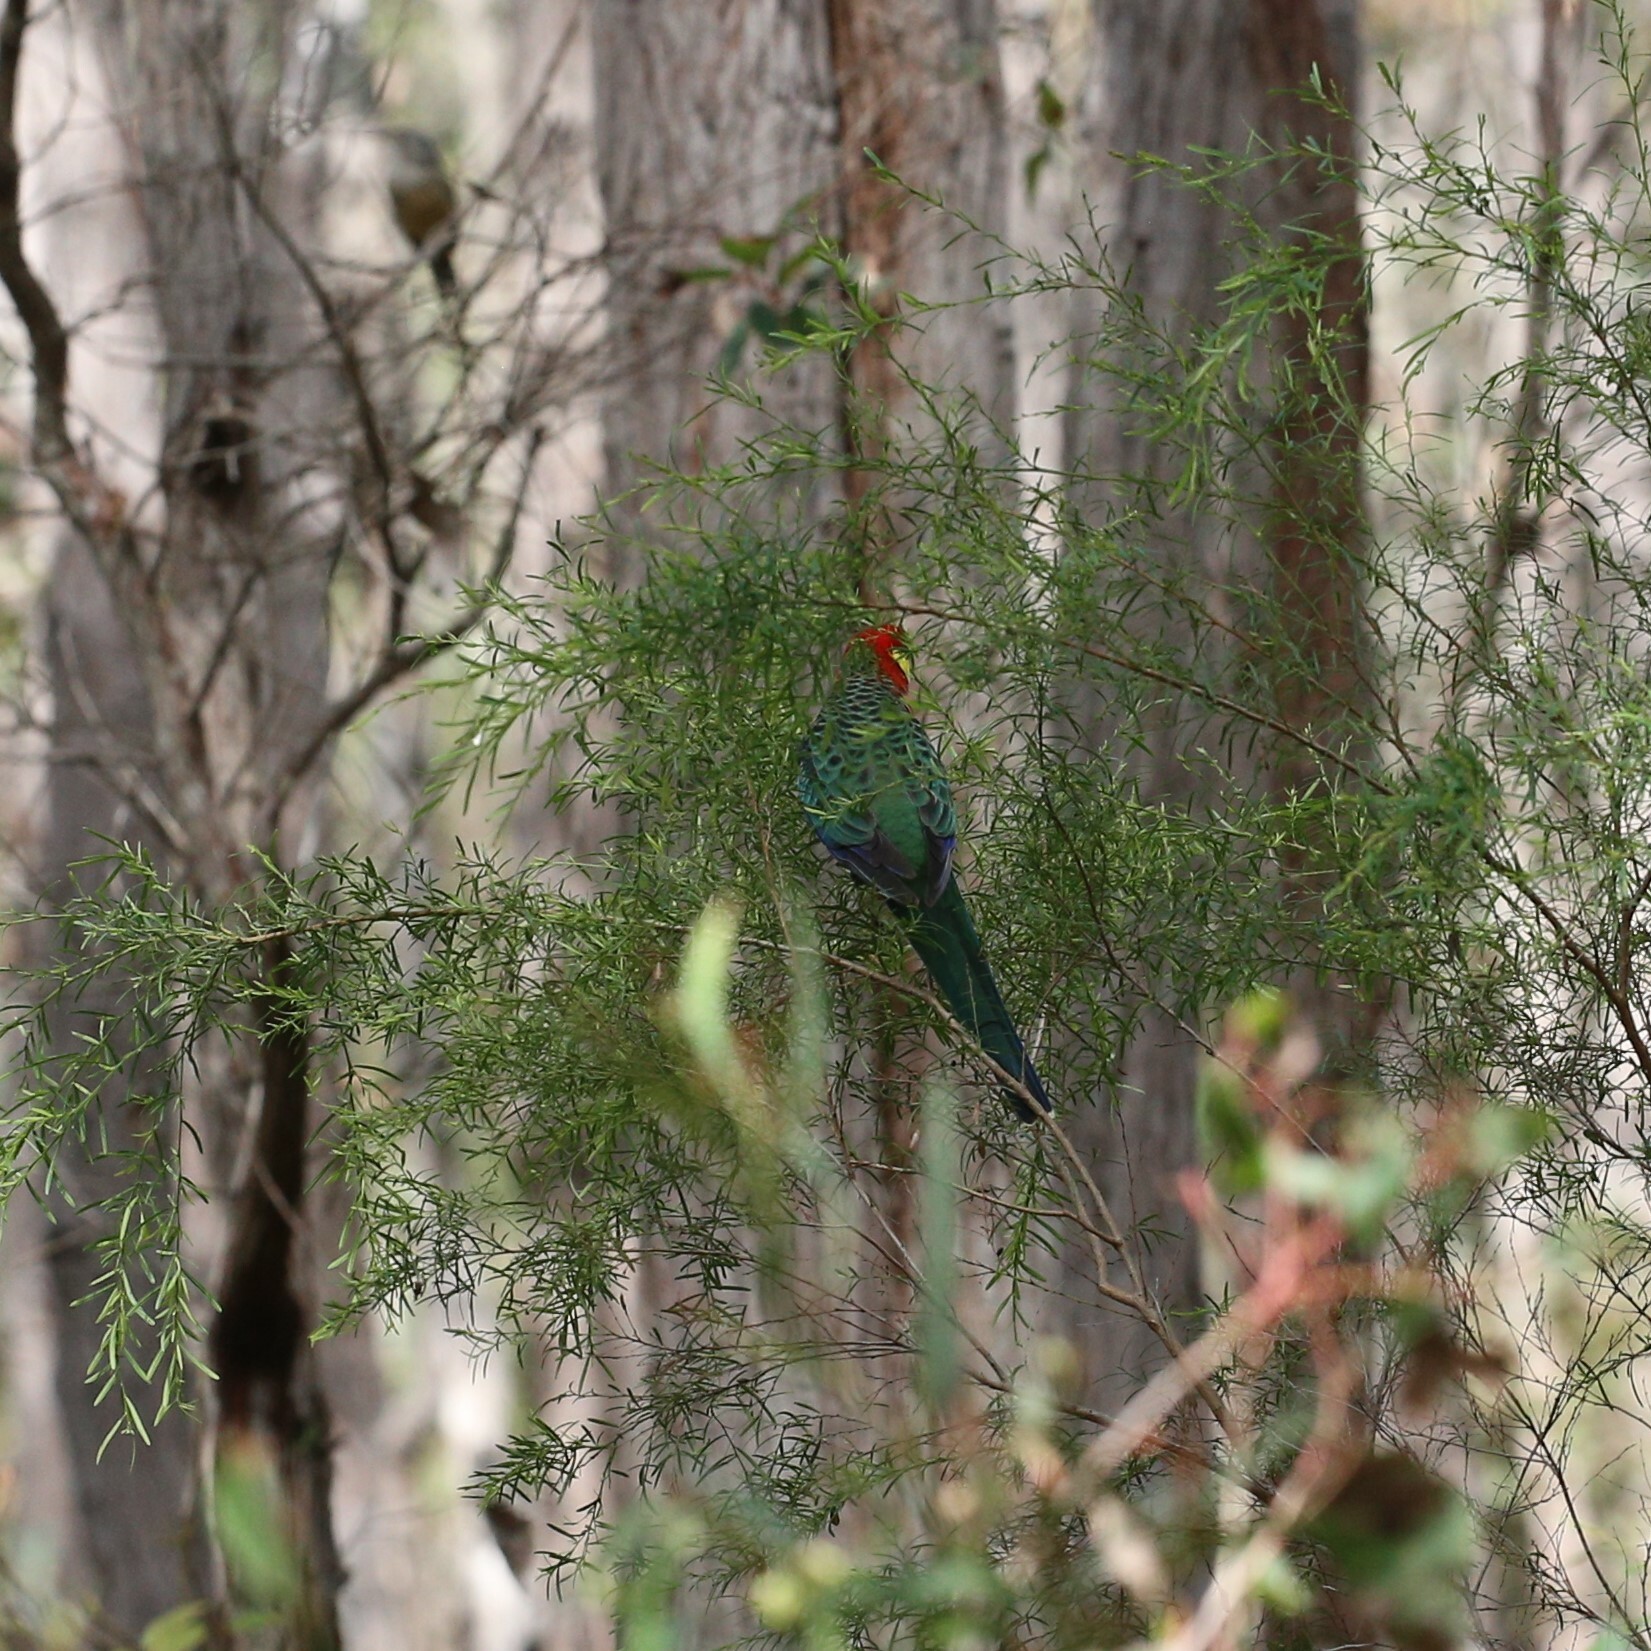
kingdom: Animalia
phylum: Chordata
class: Aves
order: Psittaciformes
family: Psittacidae
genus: Platycercus
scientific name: Platycercus icterotis
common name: Western rosella
